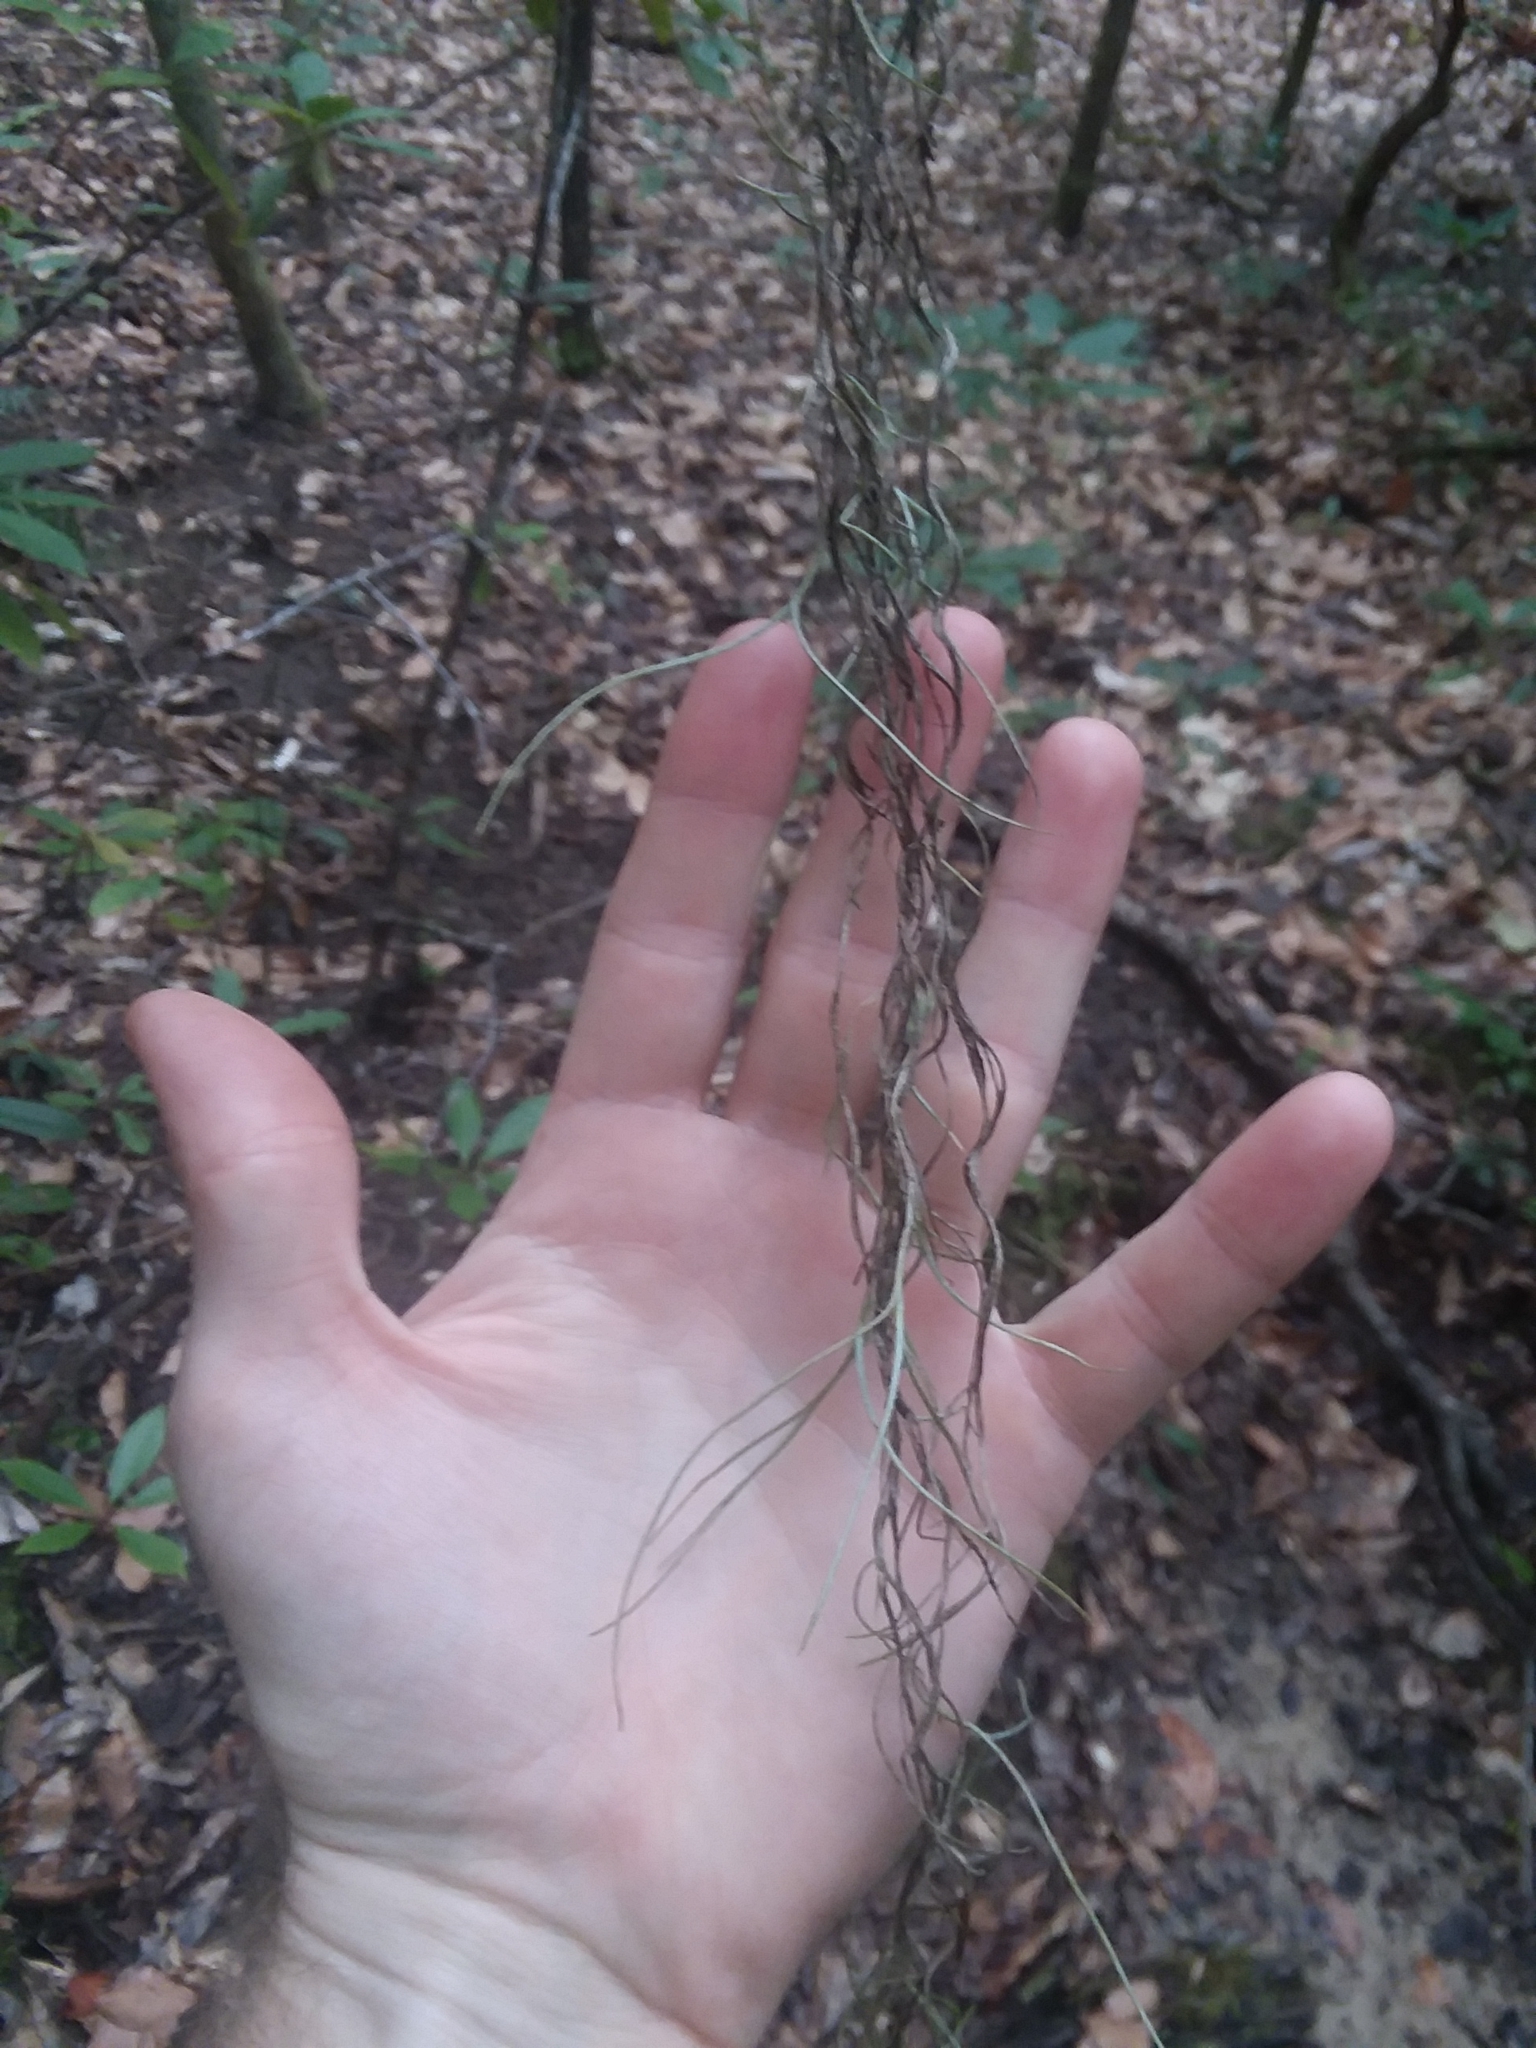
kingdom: Plantae
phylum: Tracheophyta
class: Liliopsida
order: Poales
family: Bromeliaceae
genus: Tillandsia
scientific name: Tillandsia usneoides
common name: Spanish moss
